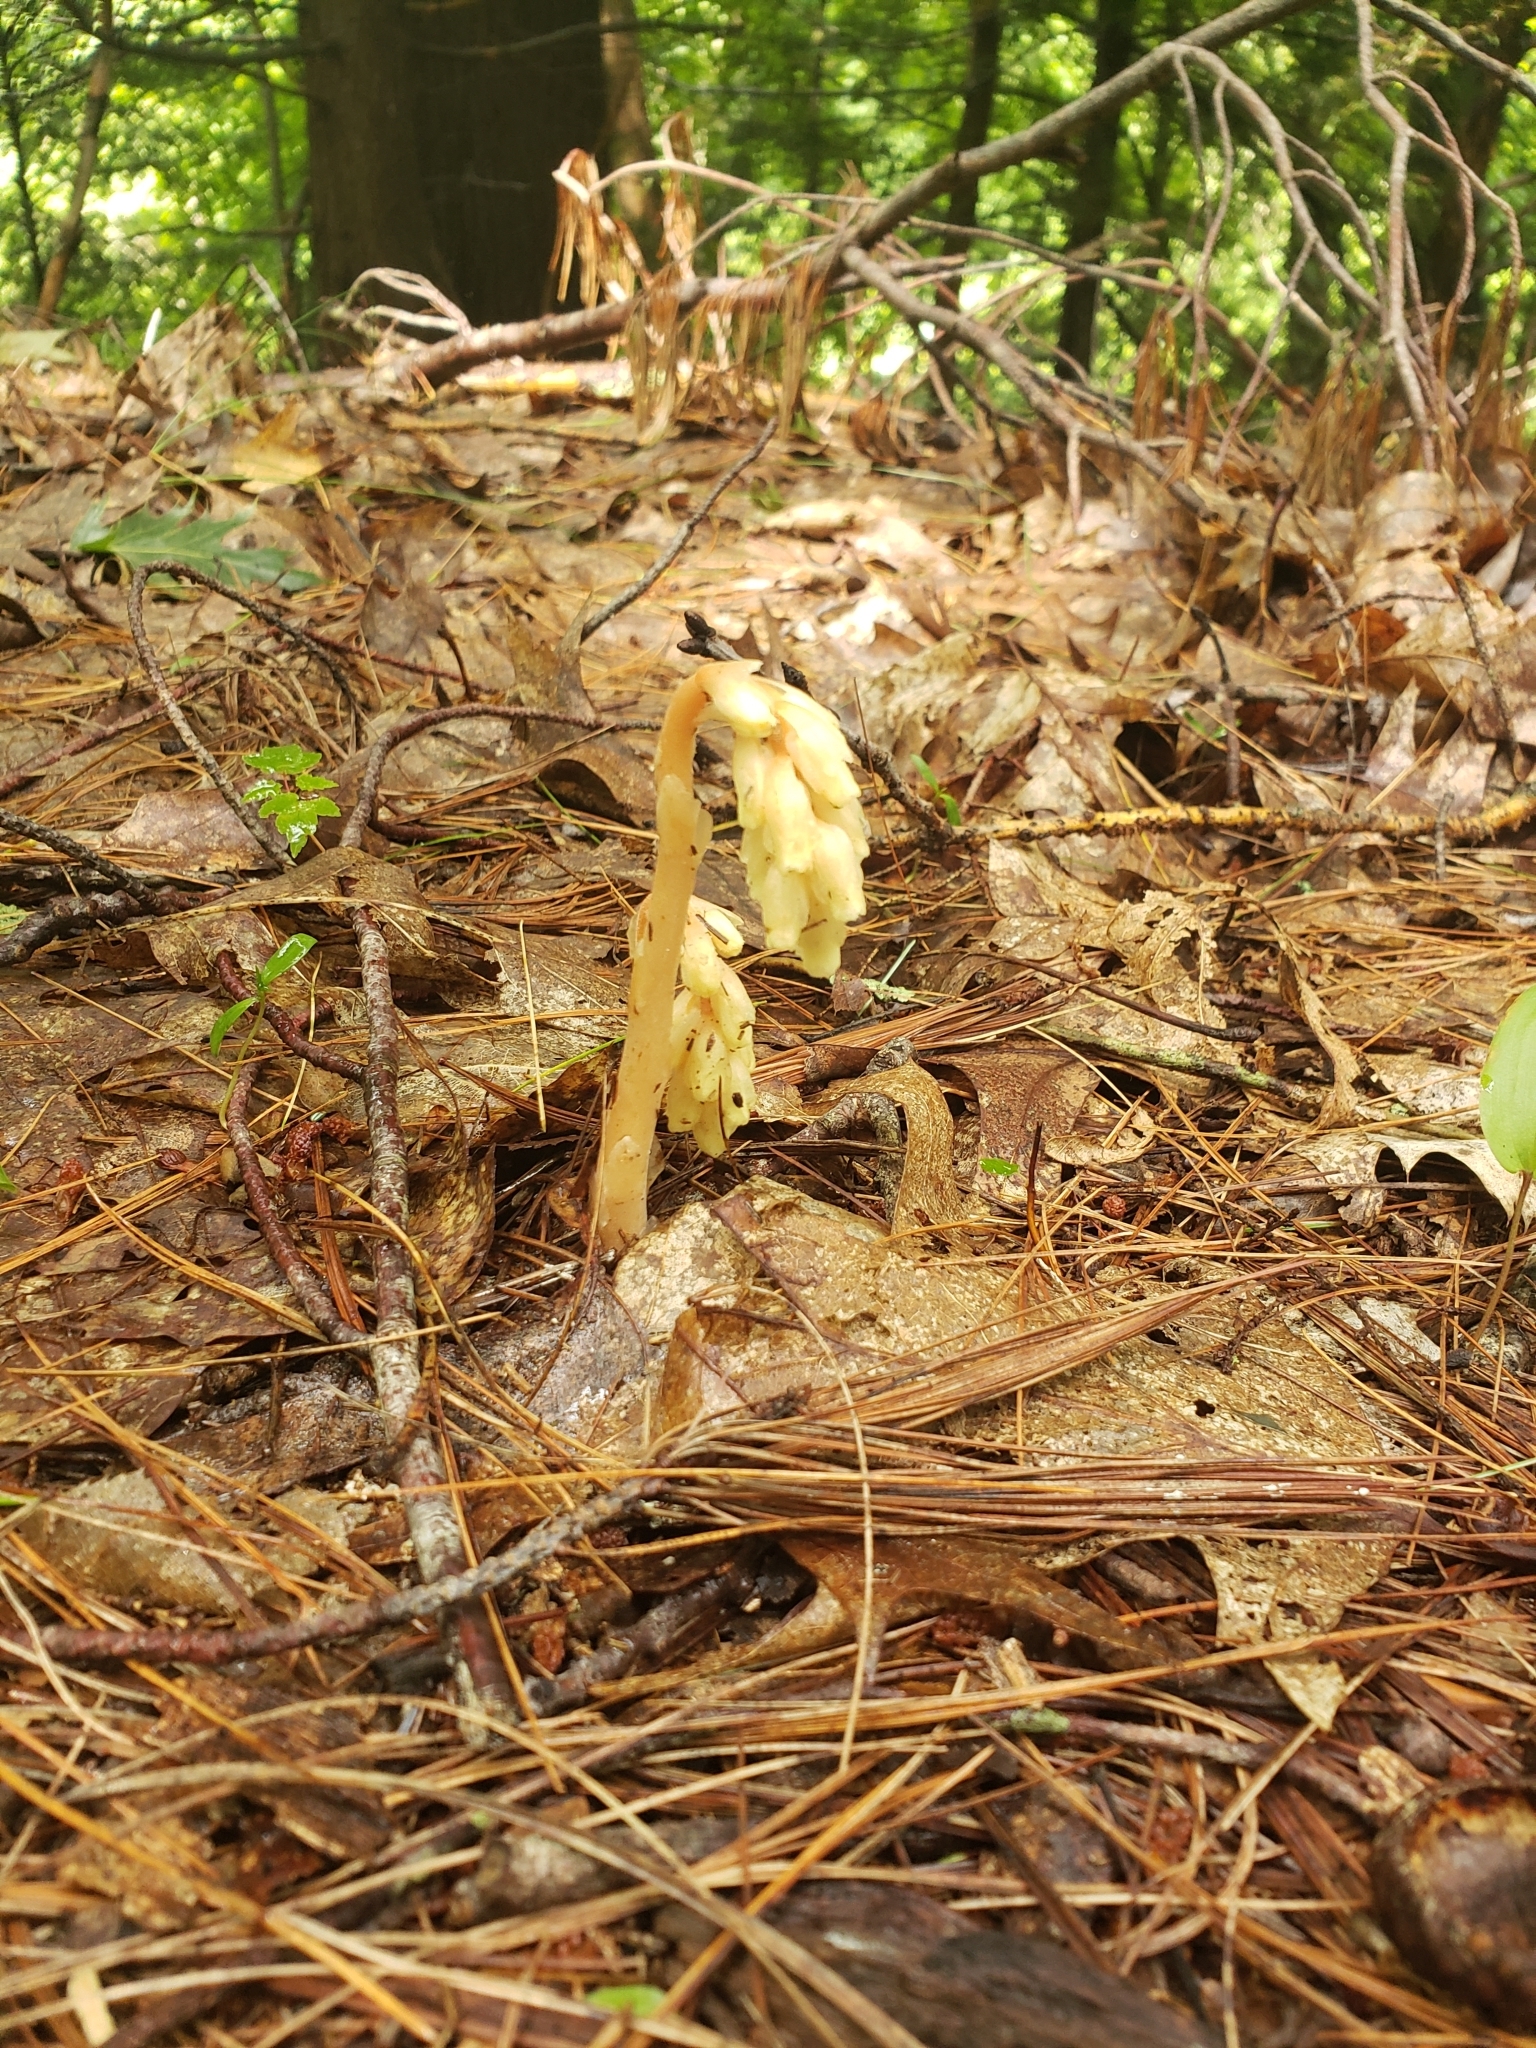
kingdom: Plantae
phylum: Tracheophyta
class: Magnoliopsida
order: Ericales
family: Ericaceae
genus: Hypopitys
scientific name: Hypopitys monotropa
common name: Yellow bird's-nest
